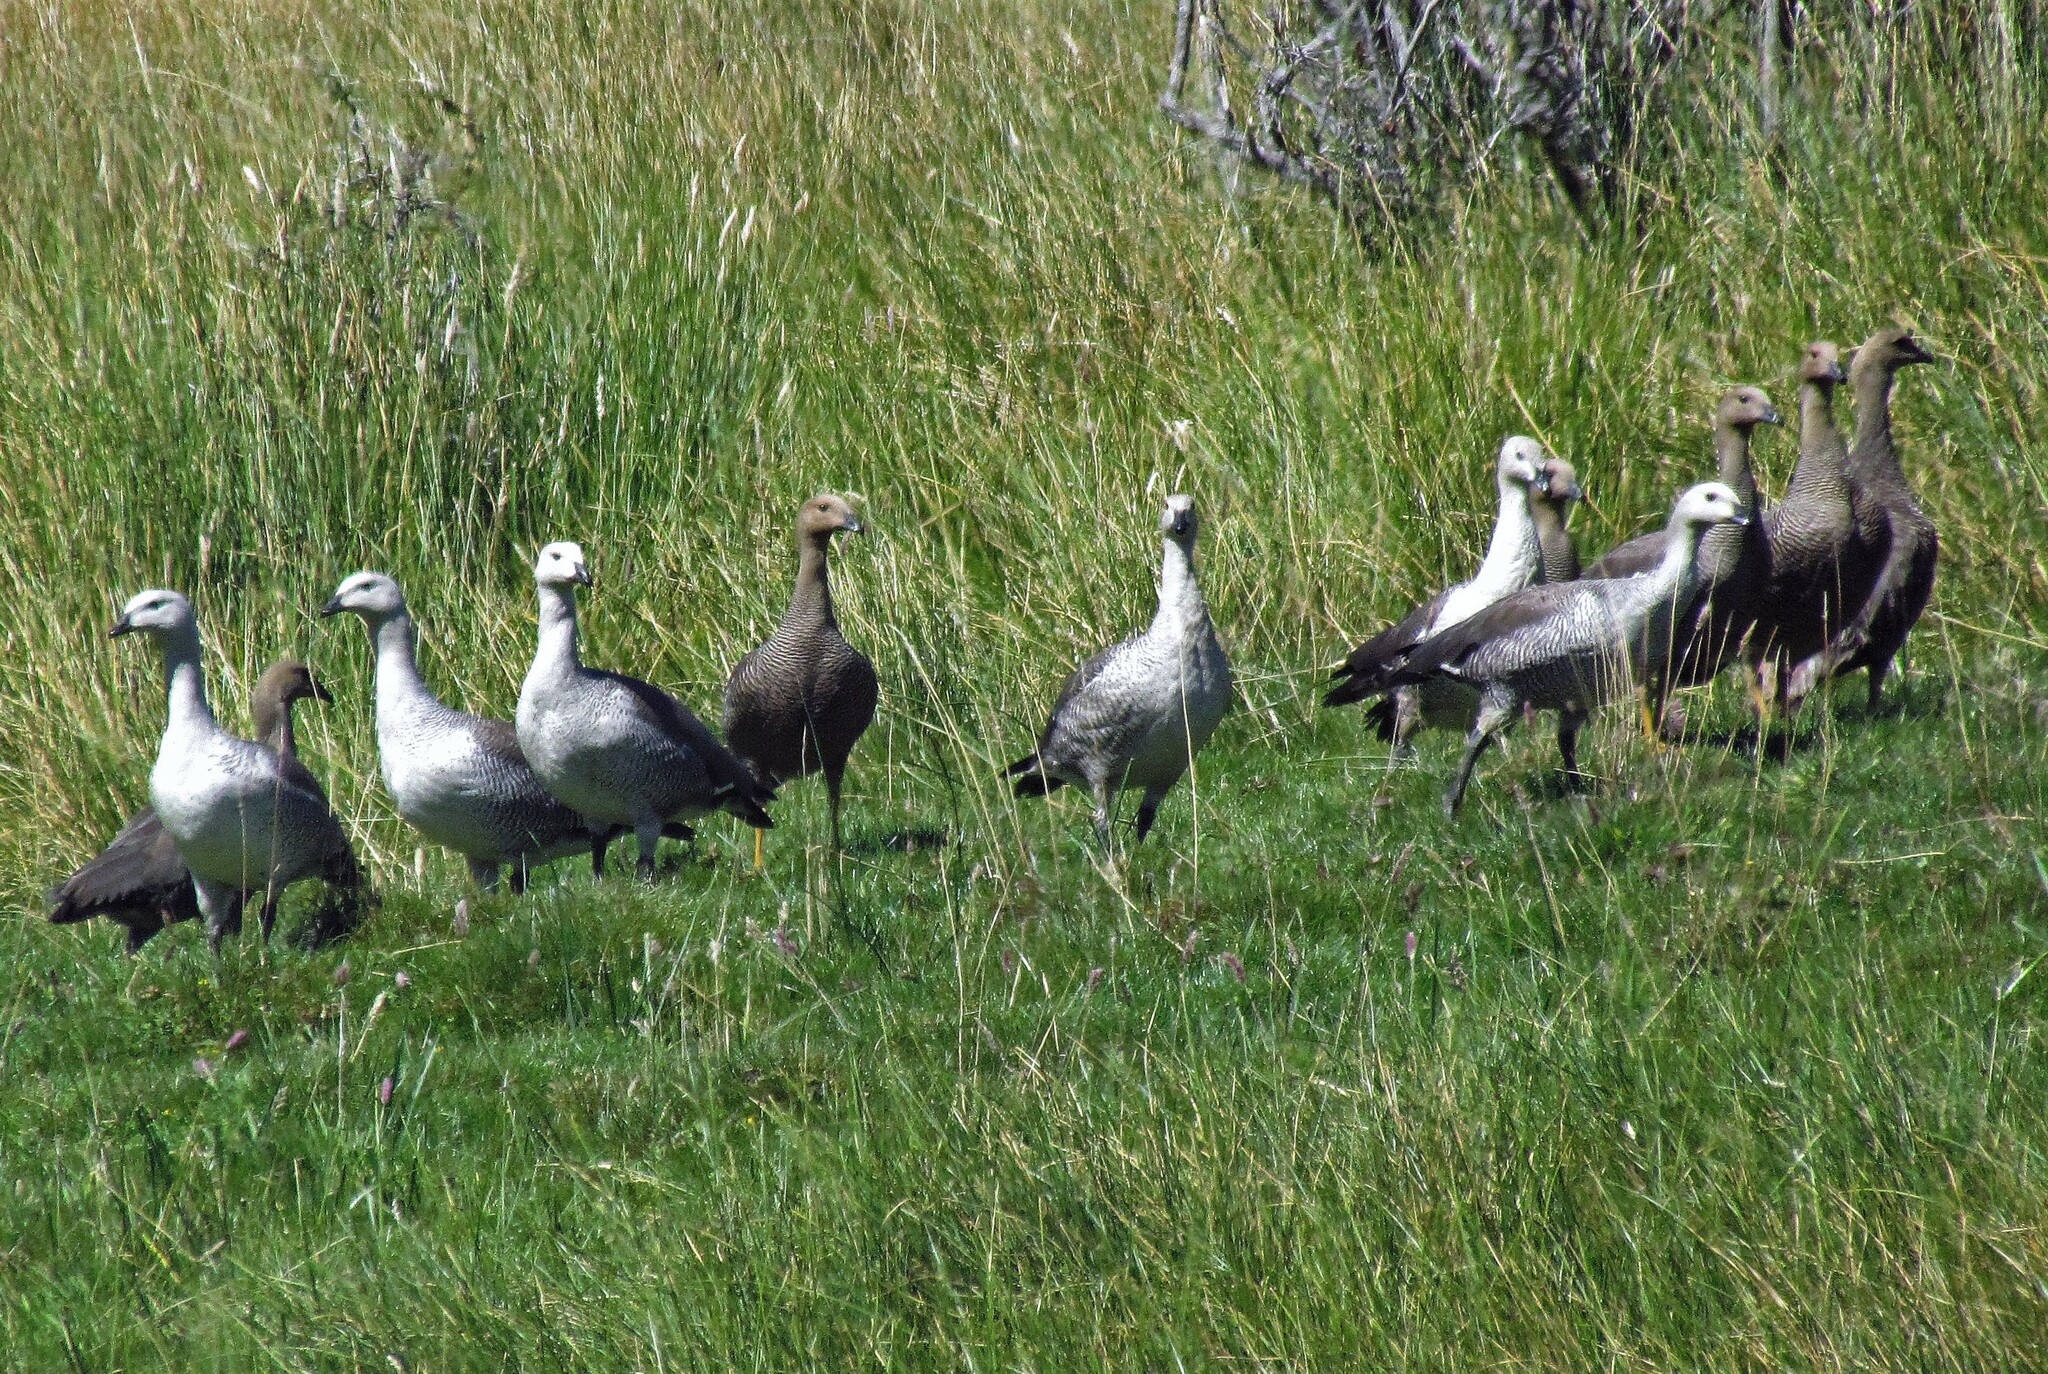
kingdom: Animalia
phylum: Chordata
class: Aves
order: Anseriformes
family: Anatidae
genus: Chloephaga
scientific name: Chloephaga picta
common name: Upland goose
